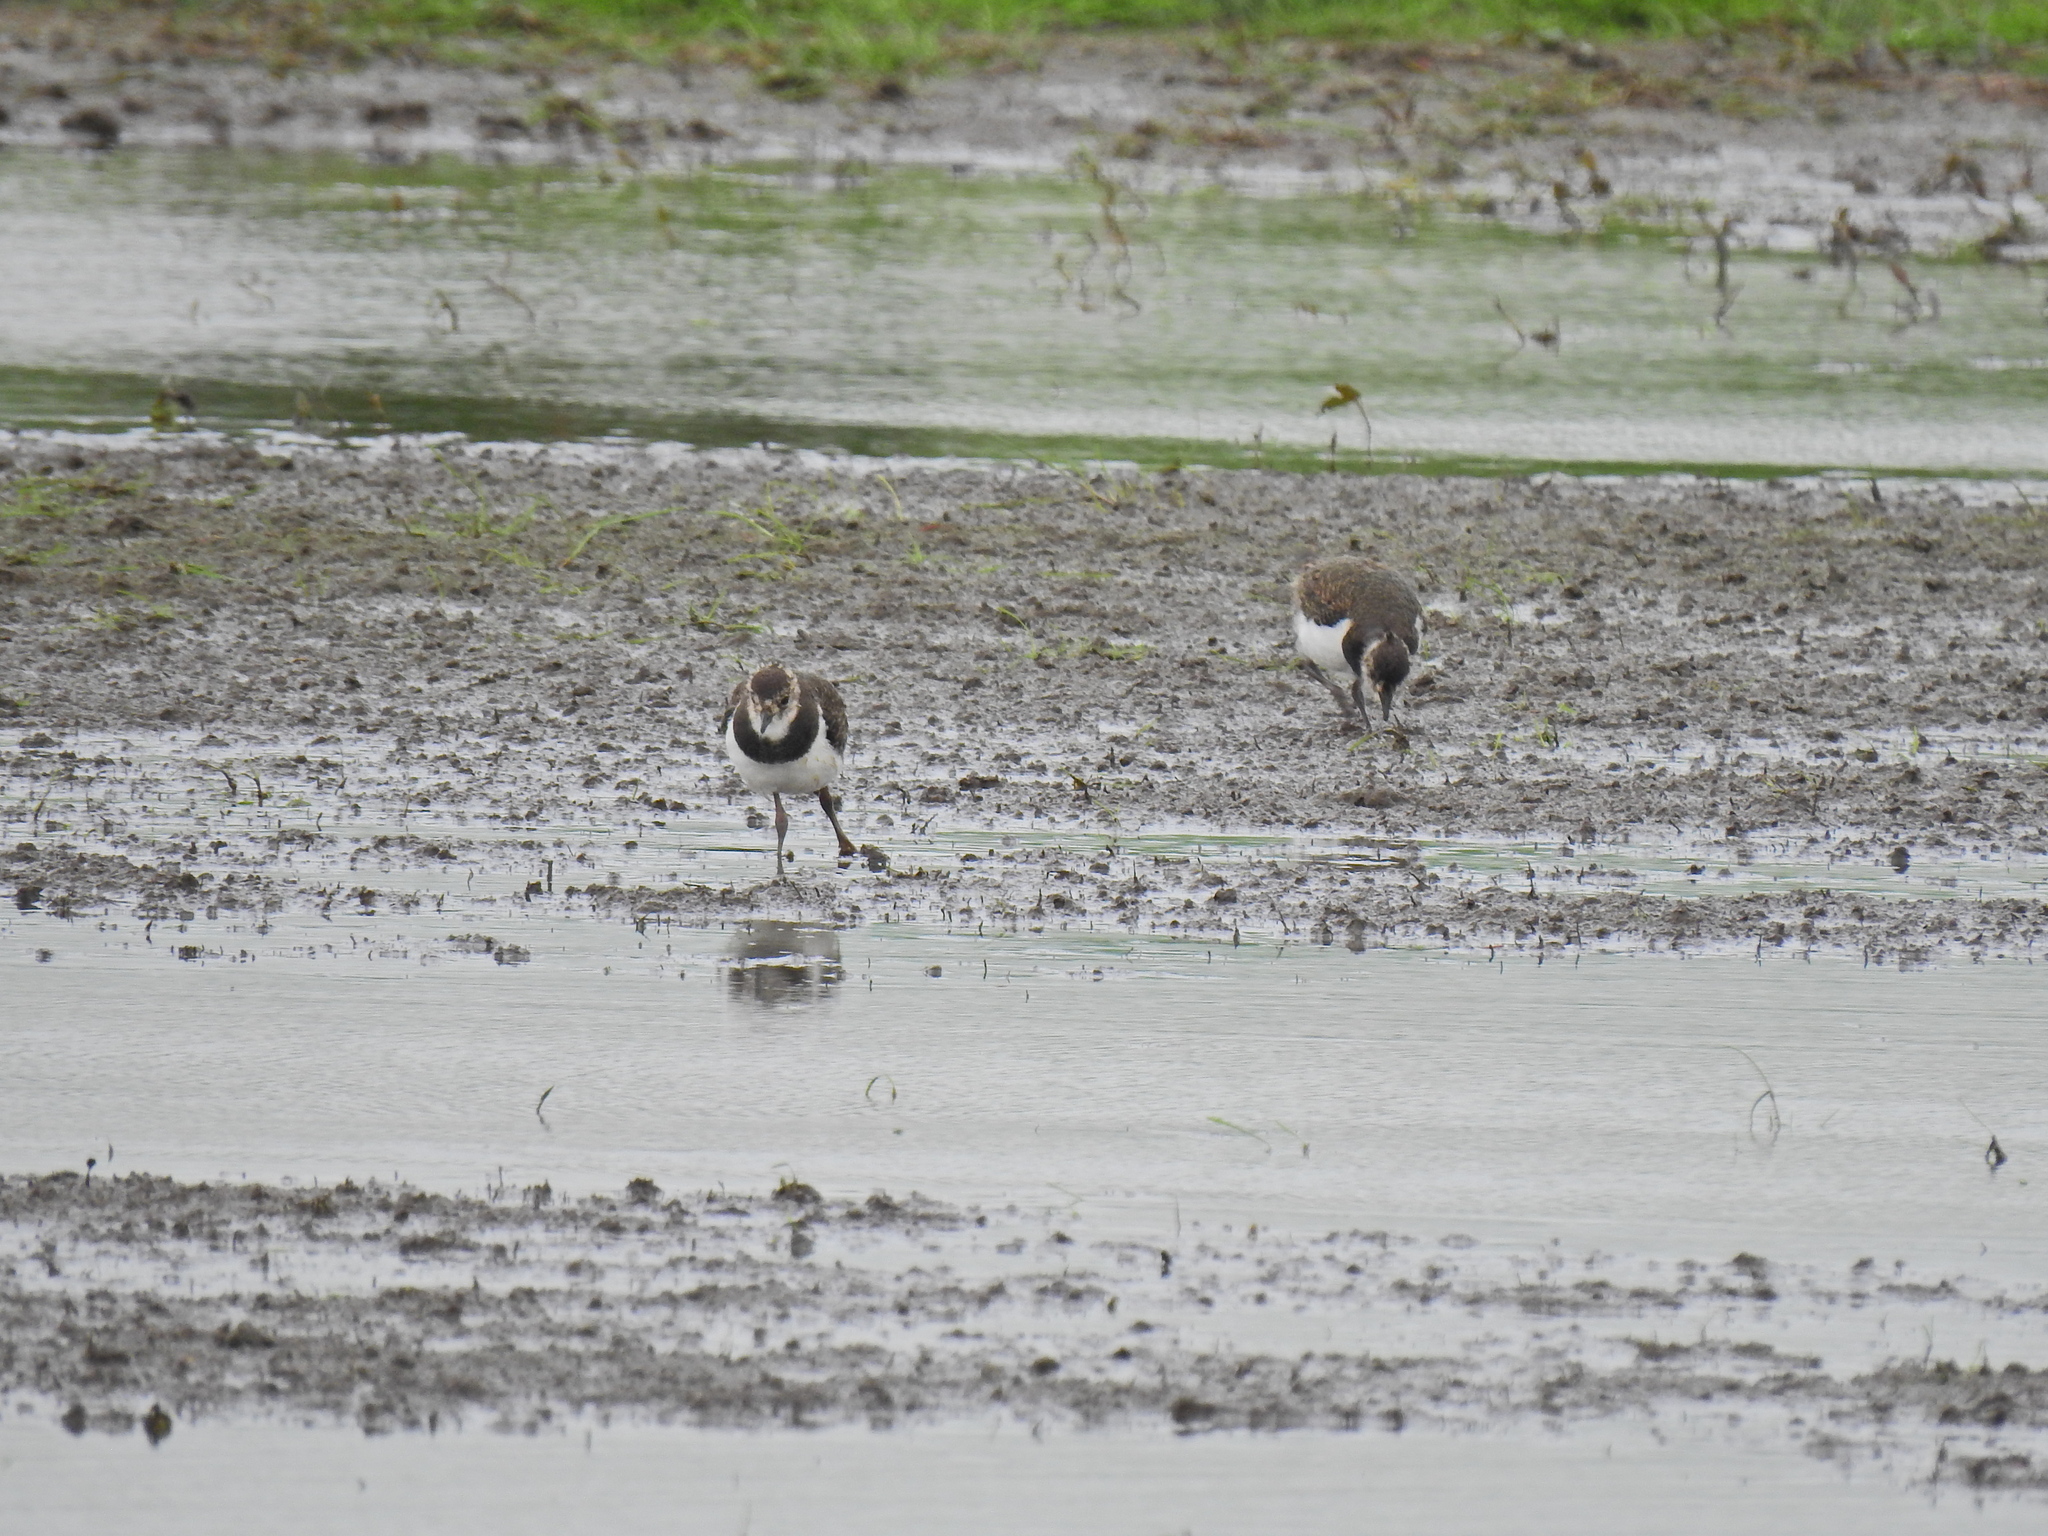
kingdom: Animalia
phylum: Chordata
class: Aves
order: Charadriiformes
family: Charadriidae
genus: Vanellus
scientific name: Vanellus vanellus
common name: Northern lapwing
